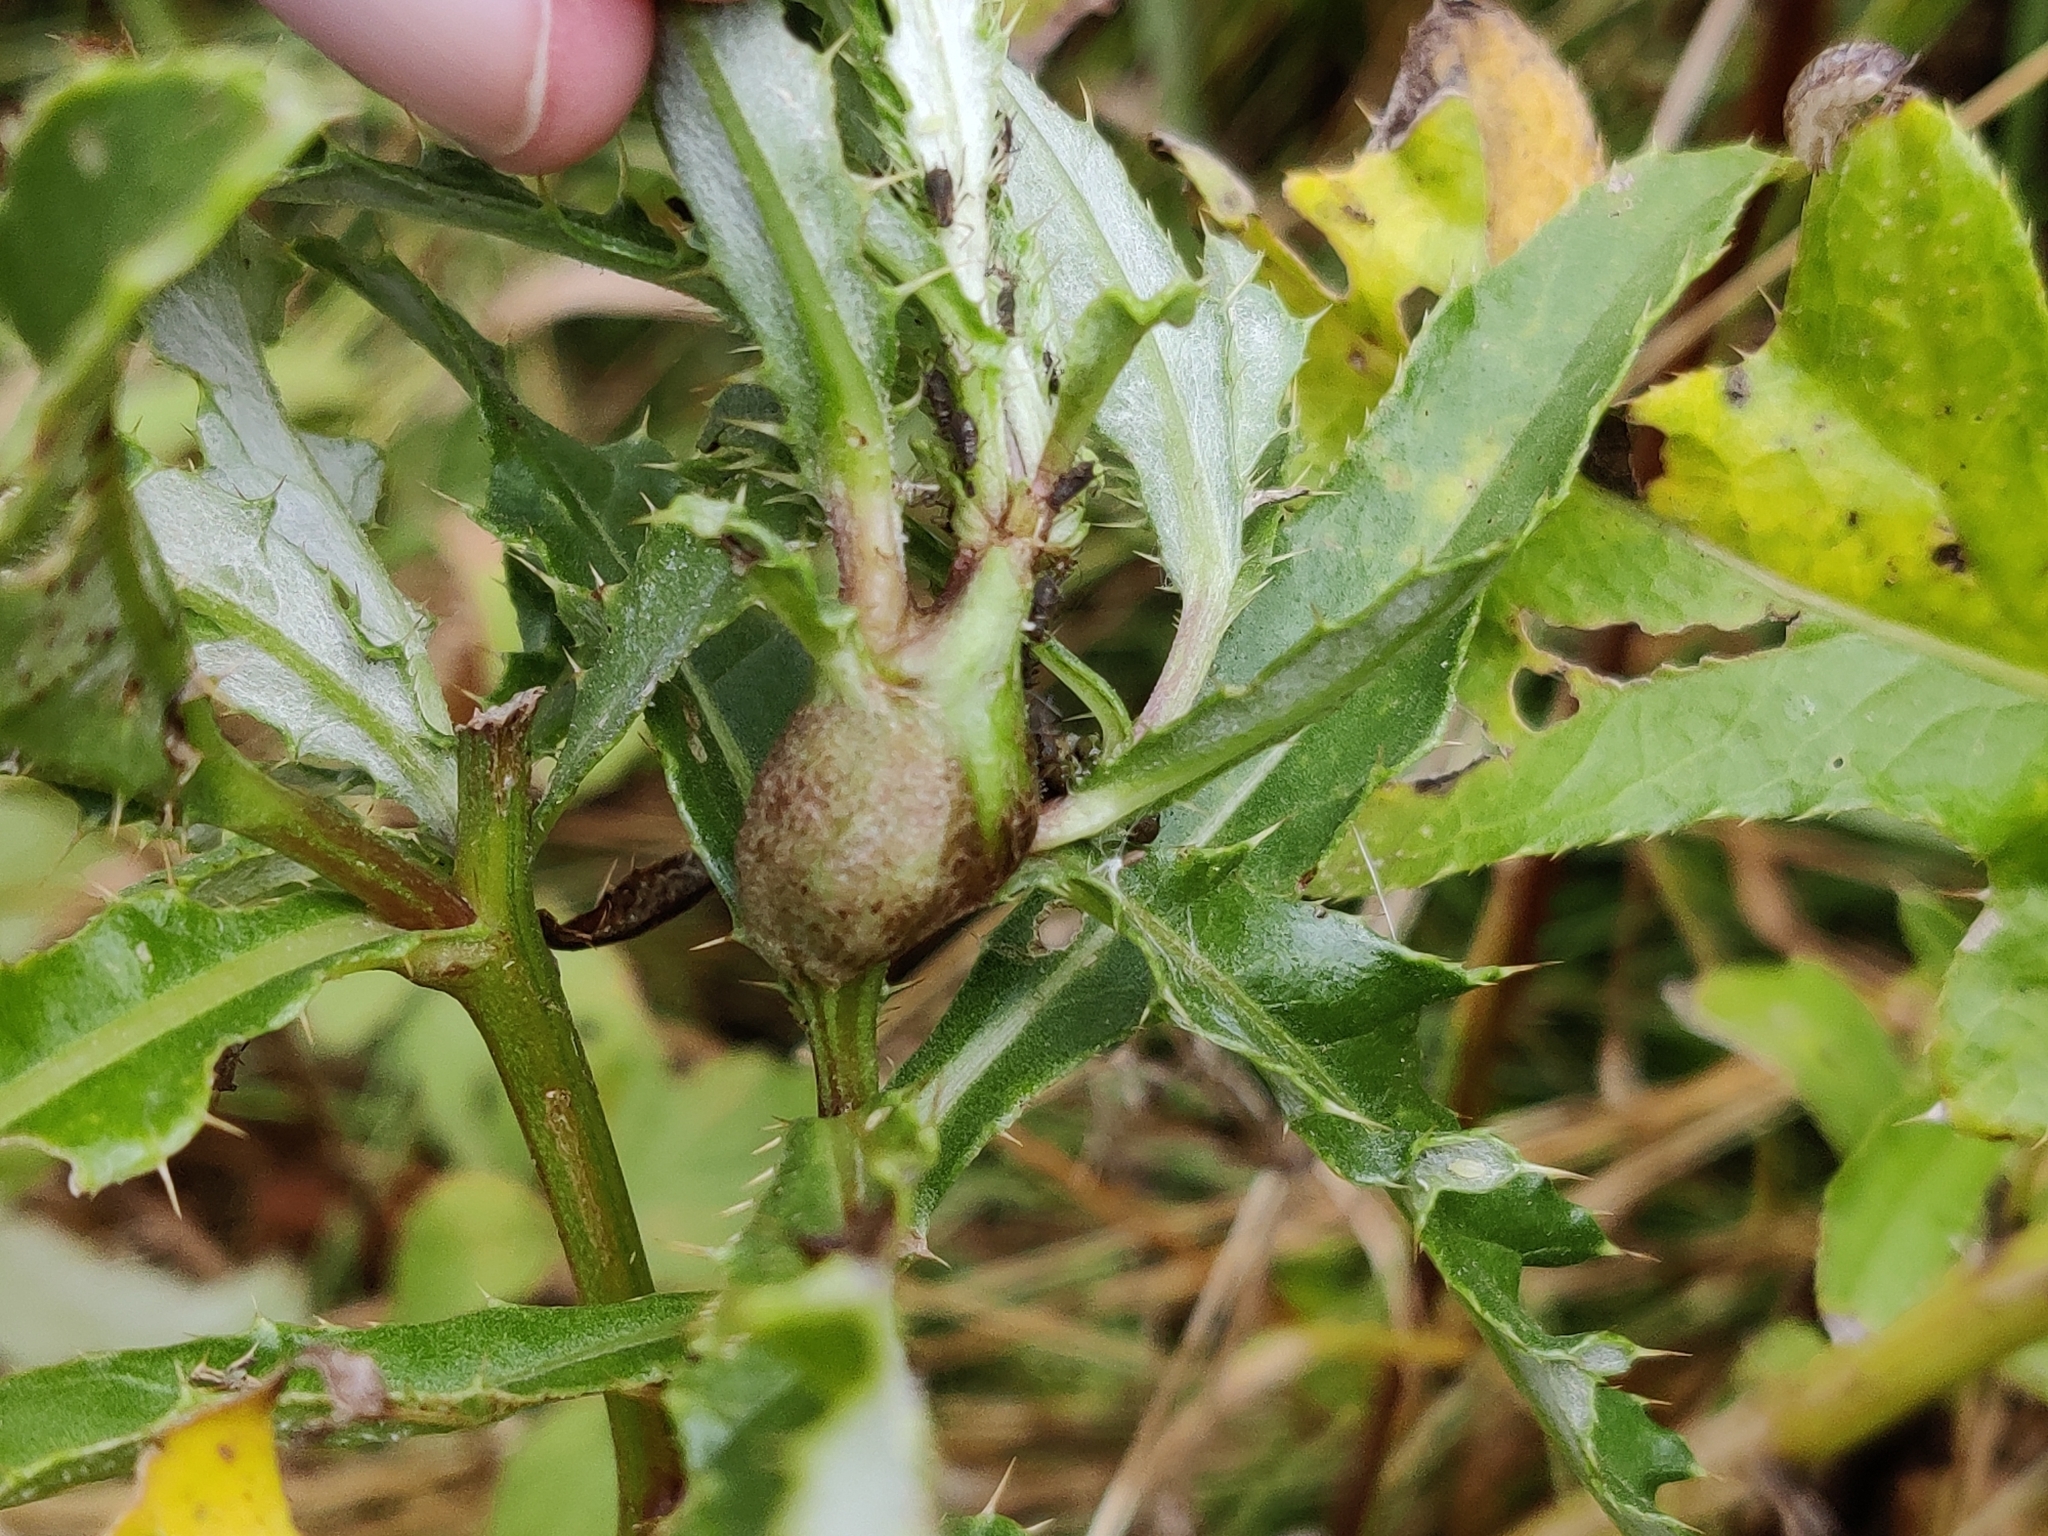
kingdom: Animalia
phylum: Arthropoda
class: Insecta
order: Diptera
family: Tephritidae
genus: Urophora
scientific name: Urophora cardui
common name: Fruit fly
